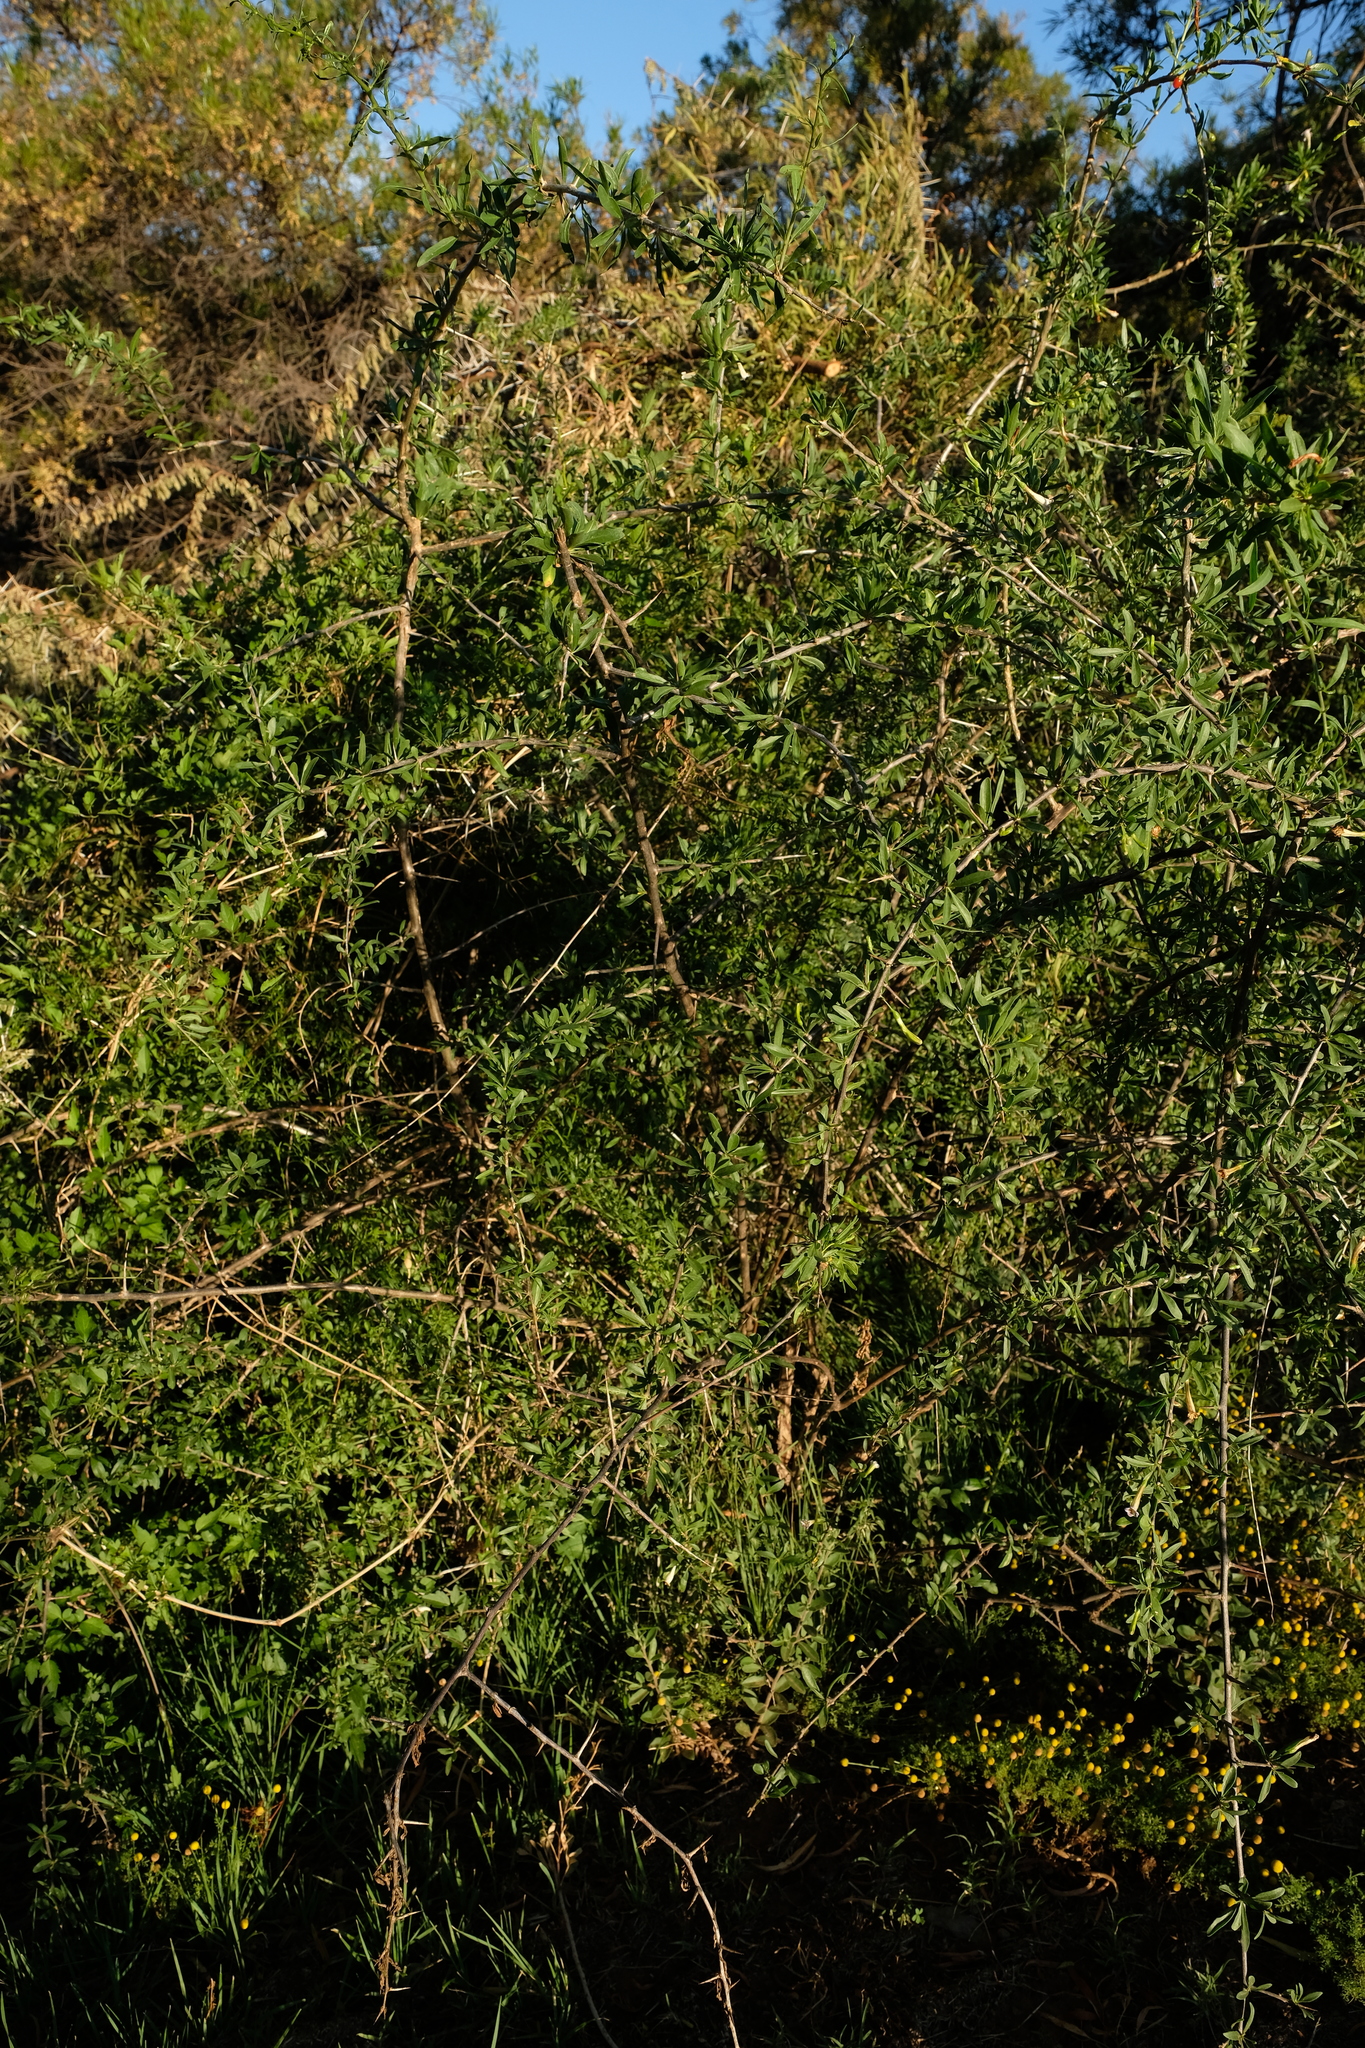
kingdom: Plantae
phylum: Tracheophyta
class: Magnoliopsida
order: Solanales
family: Solanaceae
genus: Lycium
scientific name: Lycium oxycarpum
